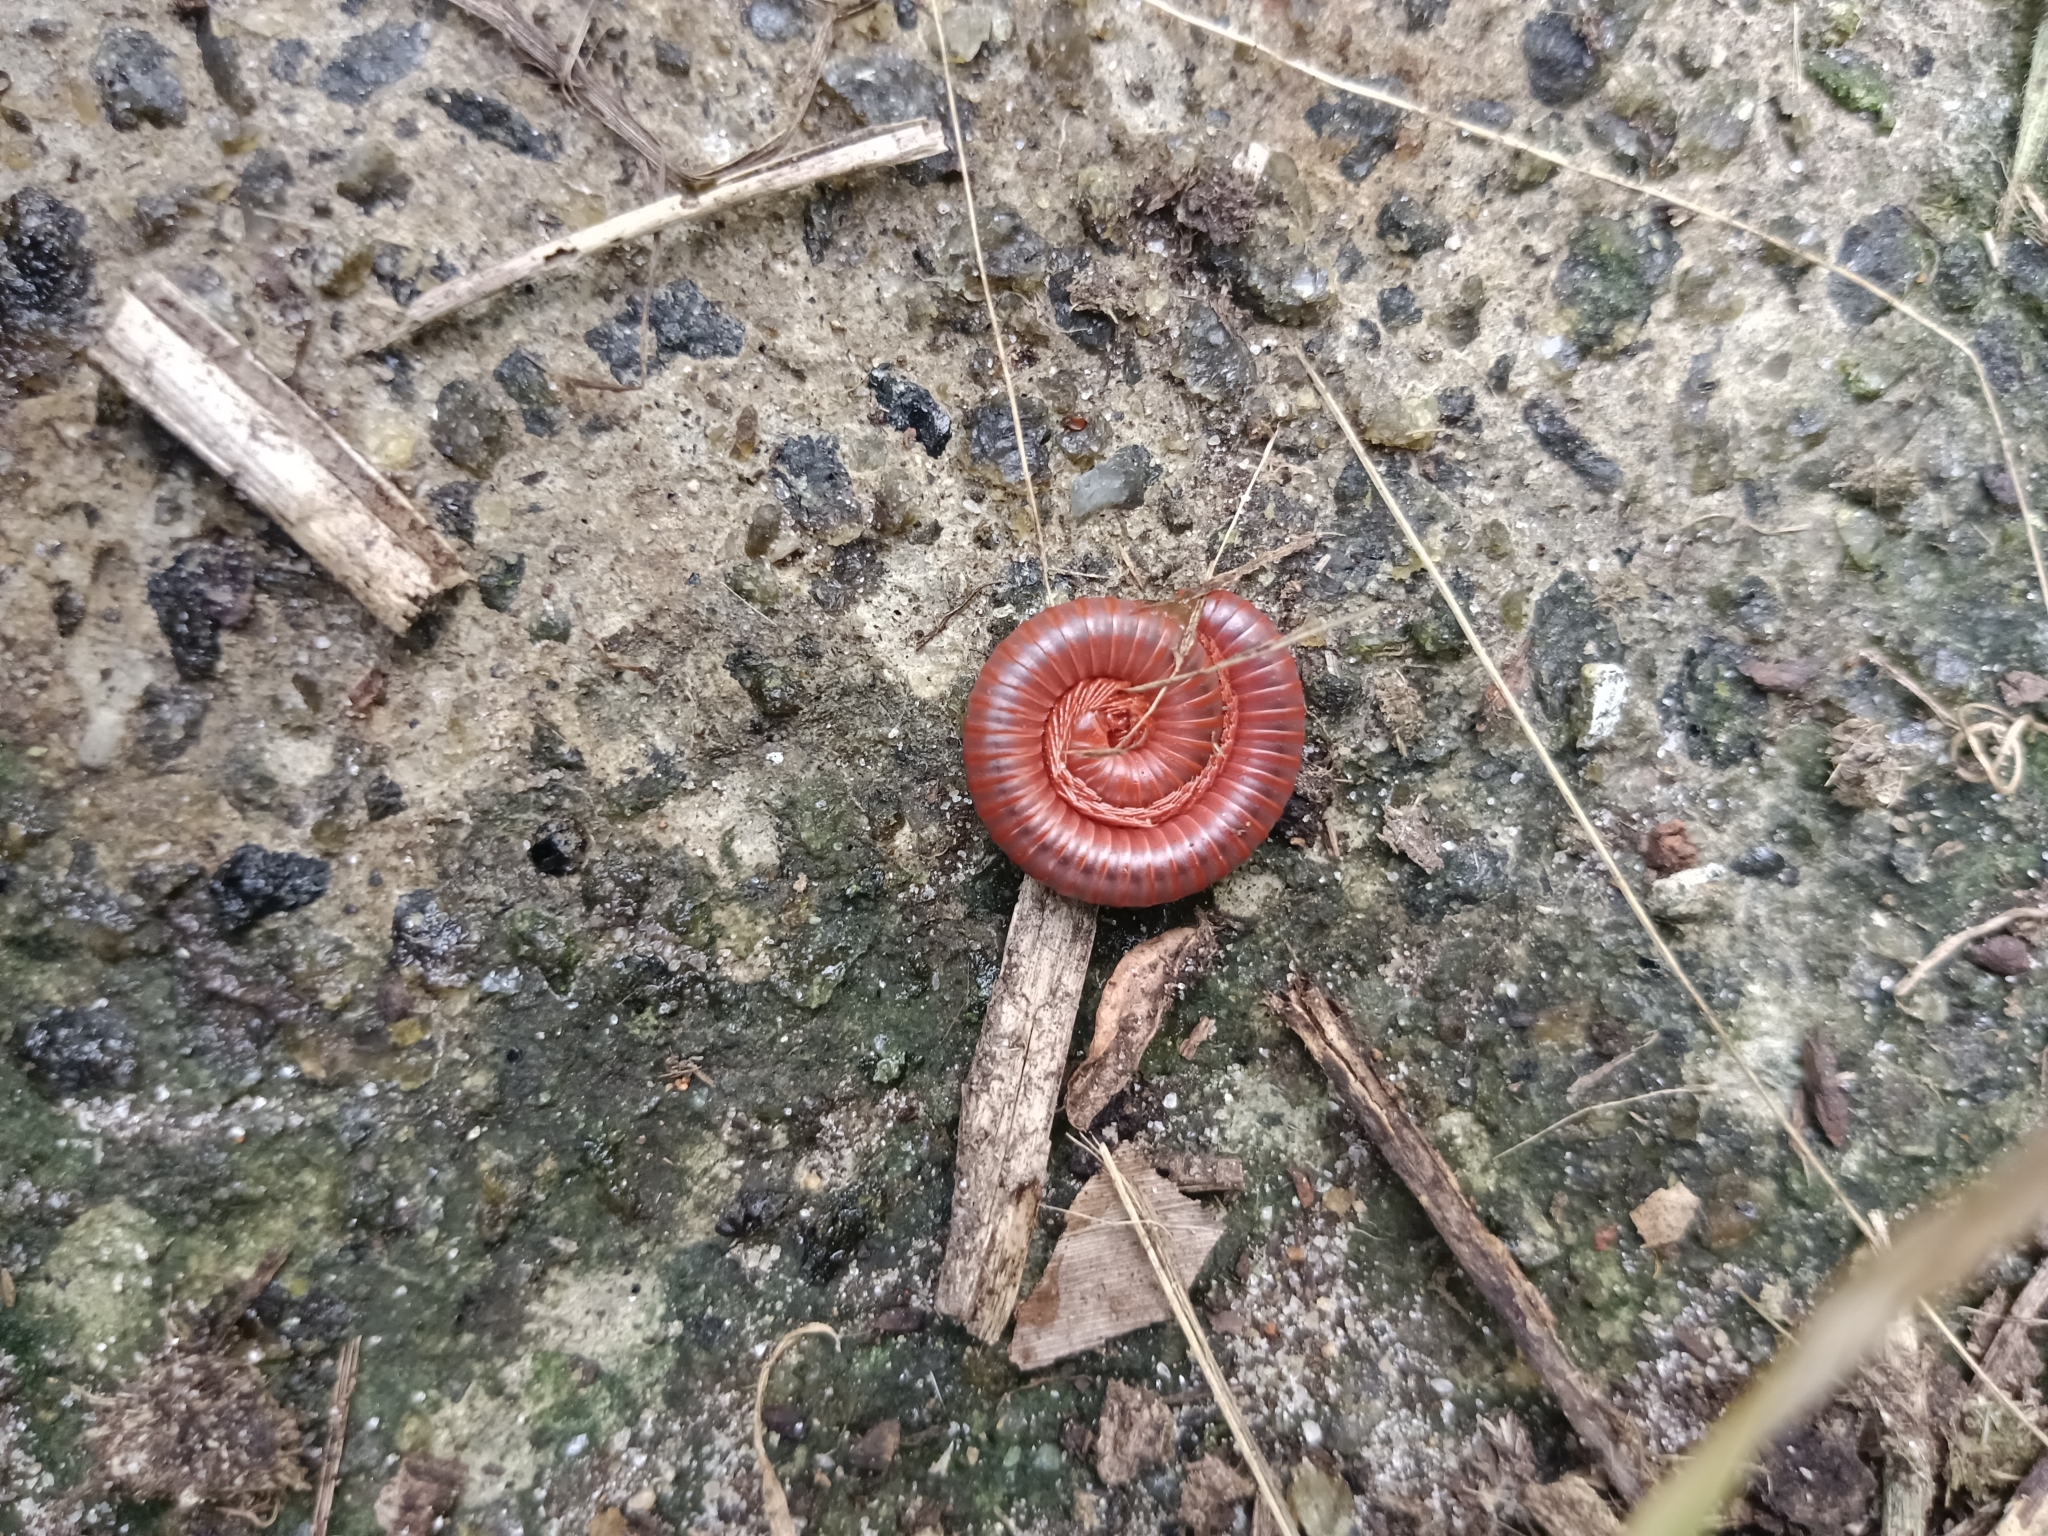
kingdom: Animalia
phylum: Arthropoda
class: Diplopoda
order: Spirobolida
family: Pachybolidae
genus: Trigoniulus
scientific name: Trigoniulus corallinus
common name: Millipede
